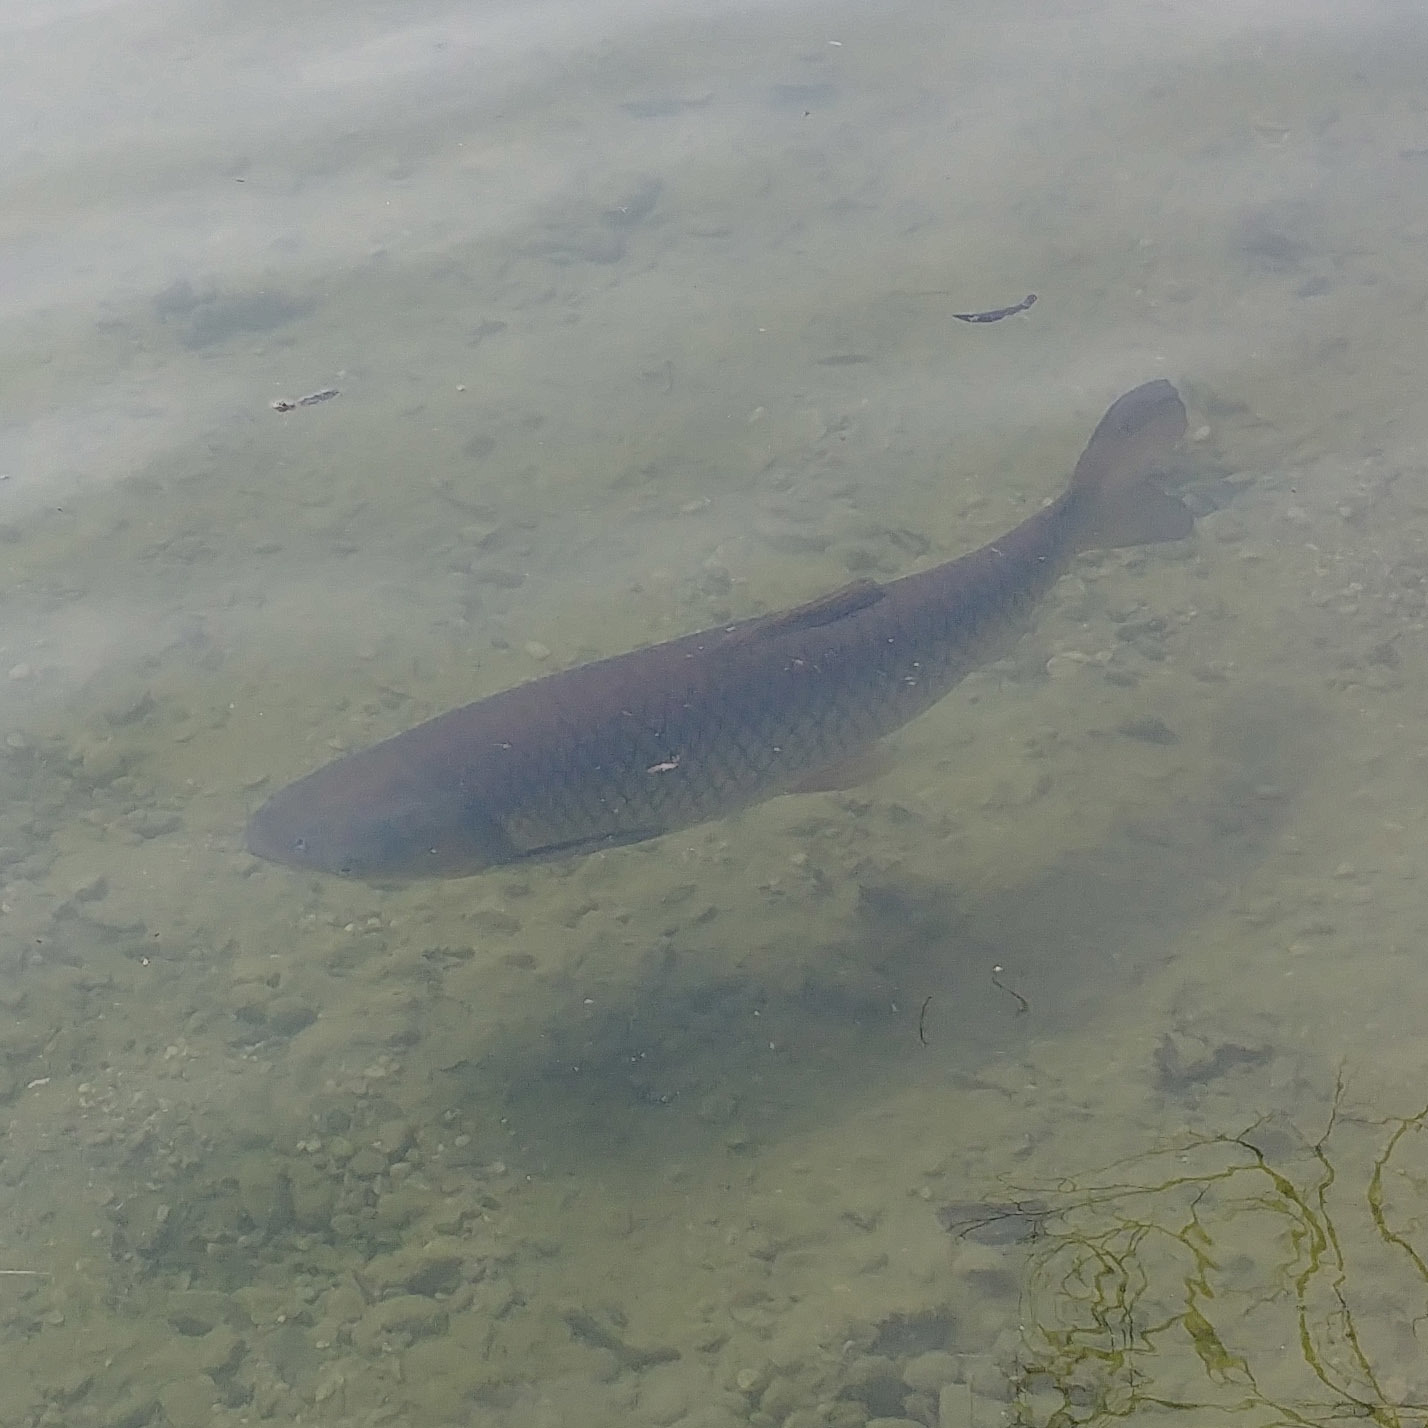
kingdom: Animalia
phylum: Chordata
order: Cypriniformes
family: Cyprinidae
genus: Squalius
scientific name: Squalius cephalus
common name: Chub
